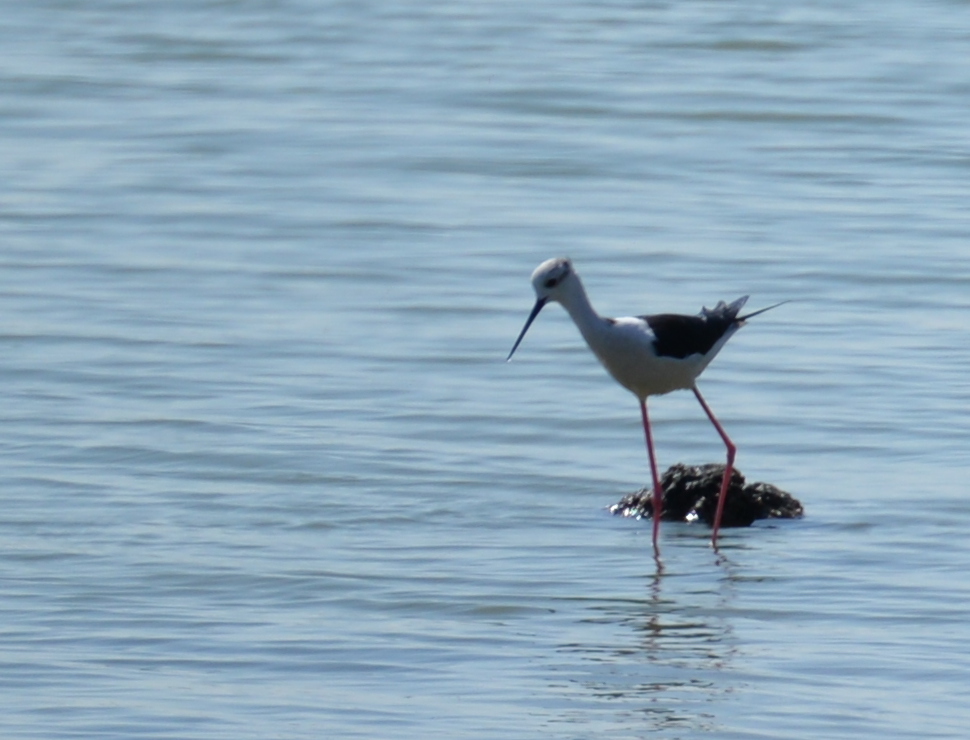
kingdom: Animalia
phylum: Chordata
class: Aves
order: Charadriiformes
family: Recurvirostridae
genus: Himantopus
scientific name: Himantopus himantopus
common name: Black-winged stilt
